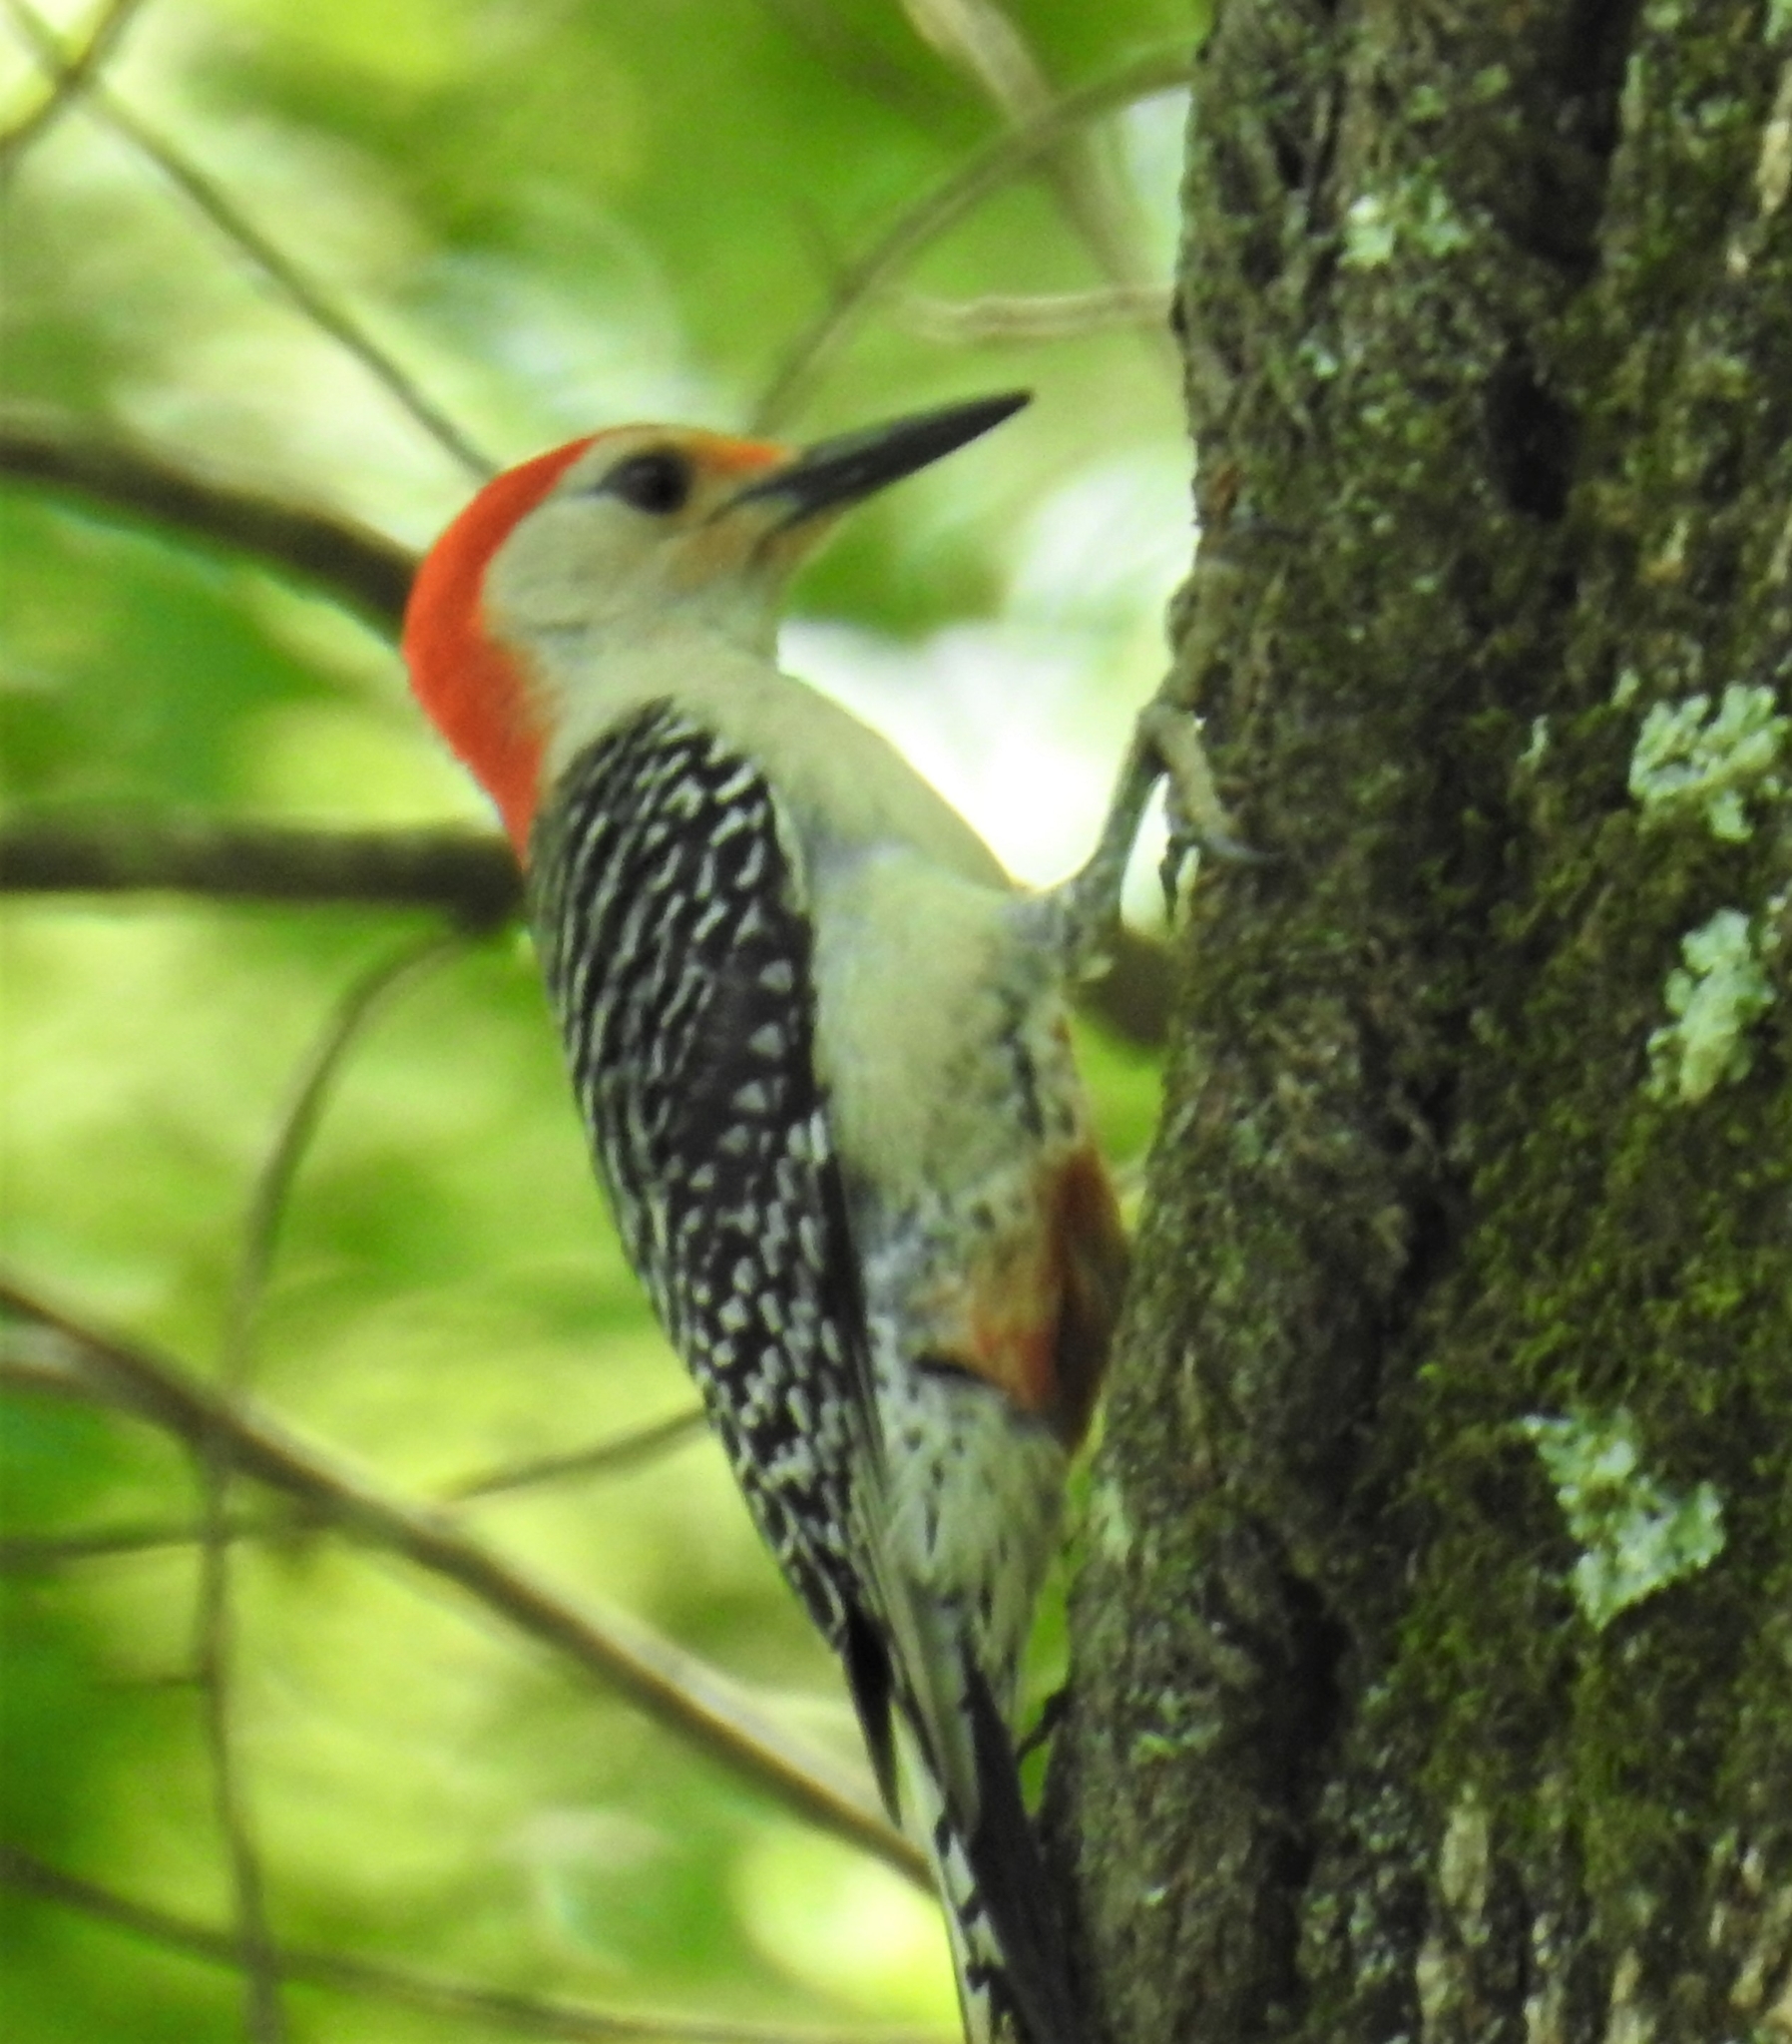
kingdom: Animalia
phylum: Chordata
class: Aves
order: Piciformes
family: Picidae
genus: Melanerpes
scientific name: Melanerpes carolinus
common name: Red-bellied woodpecker
